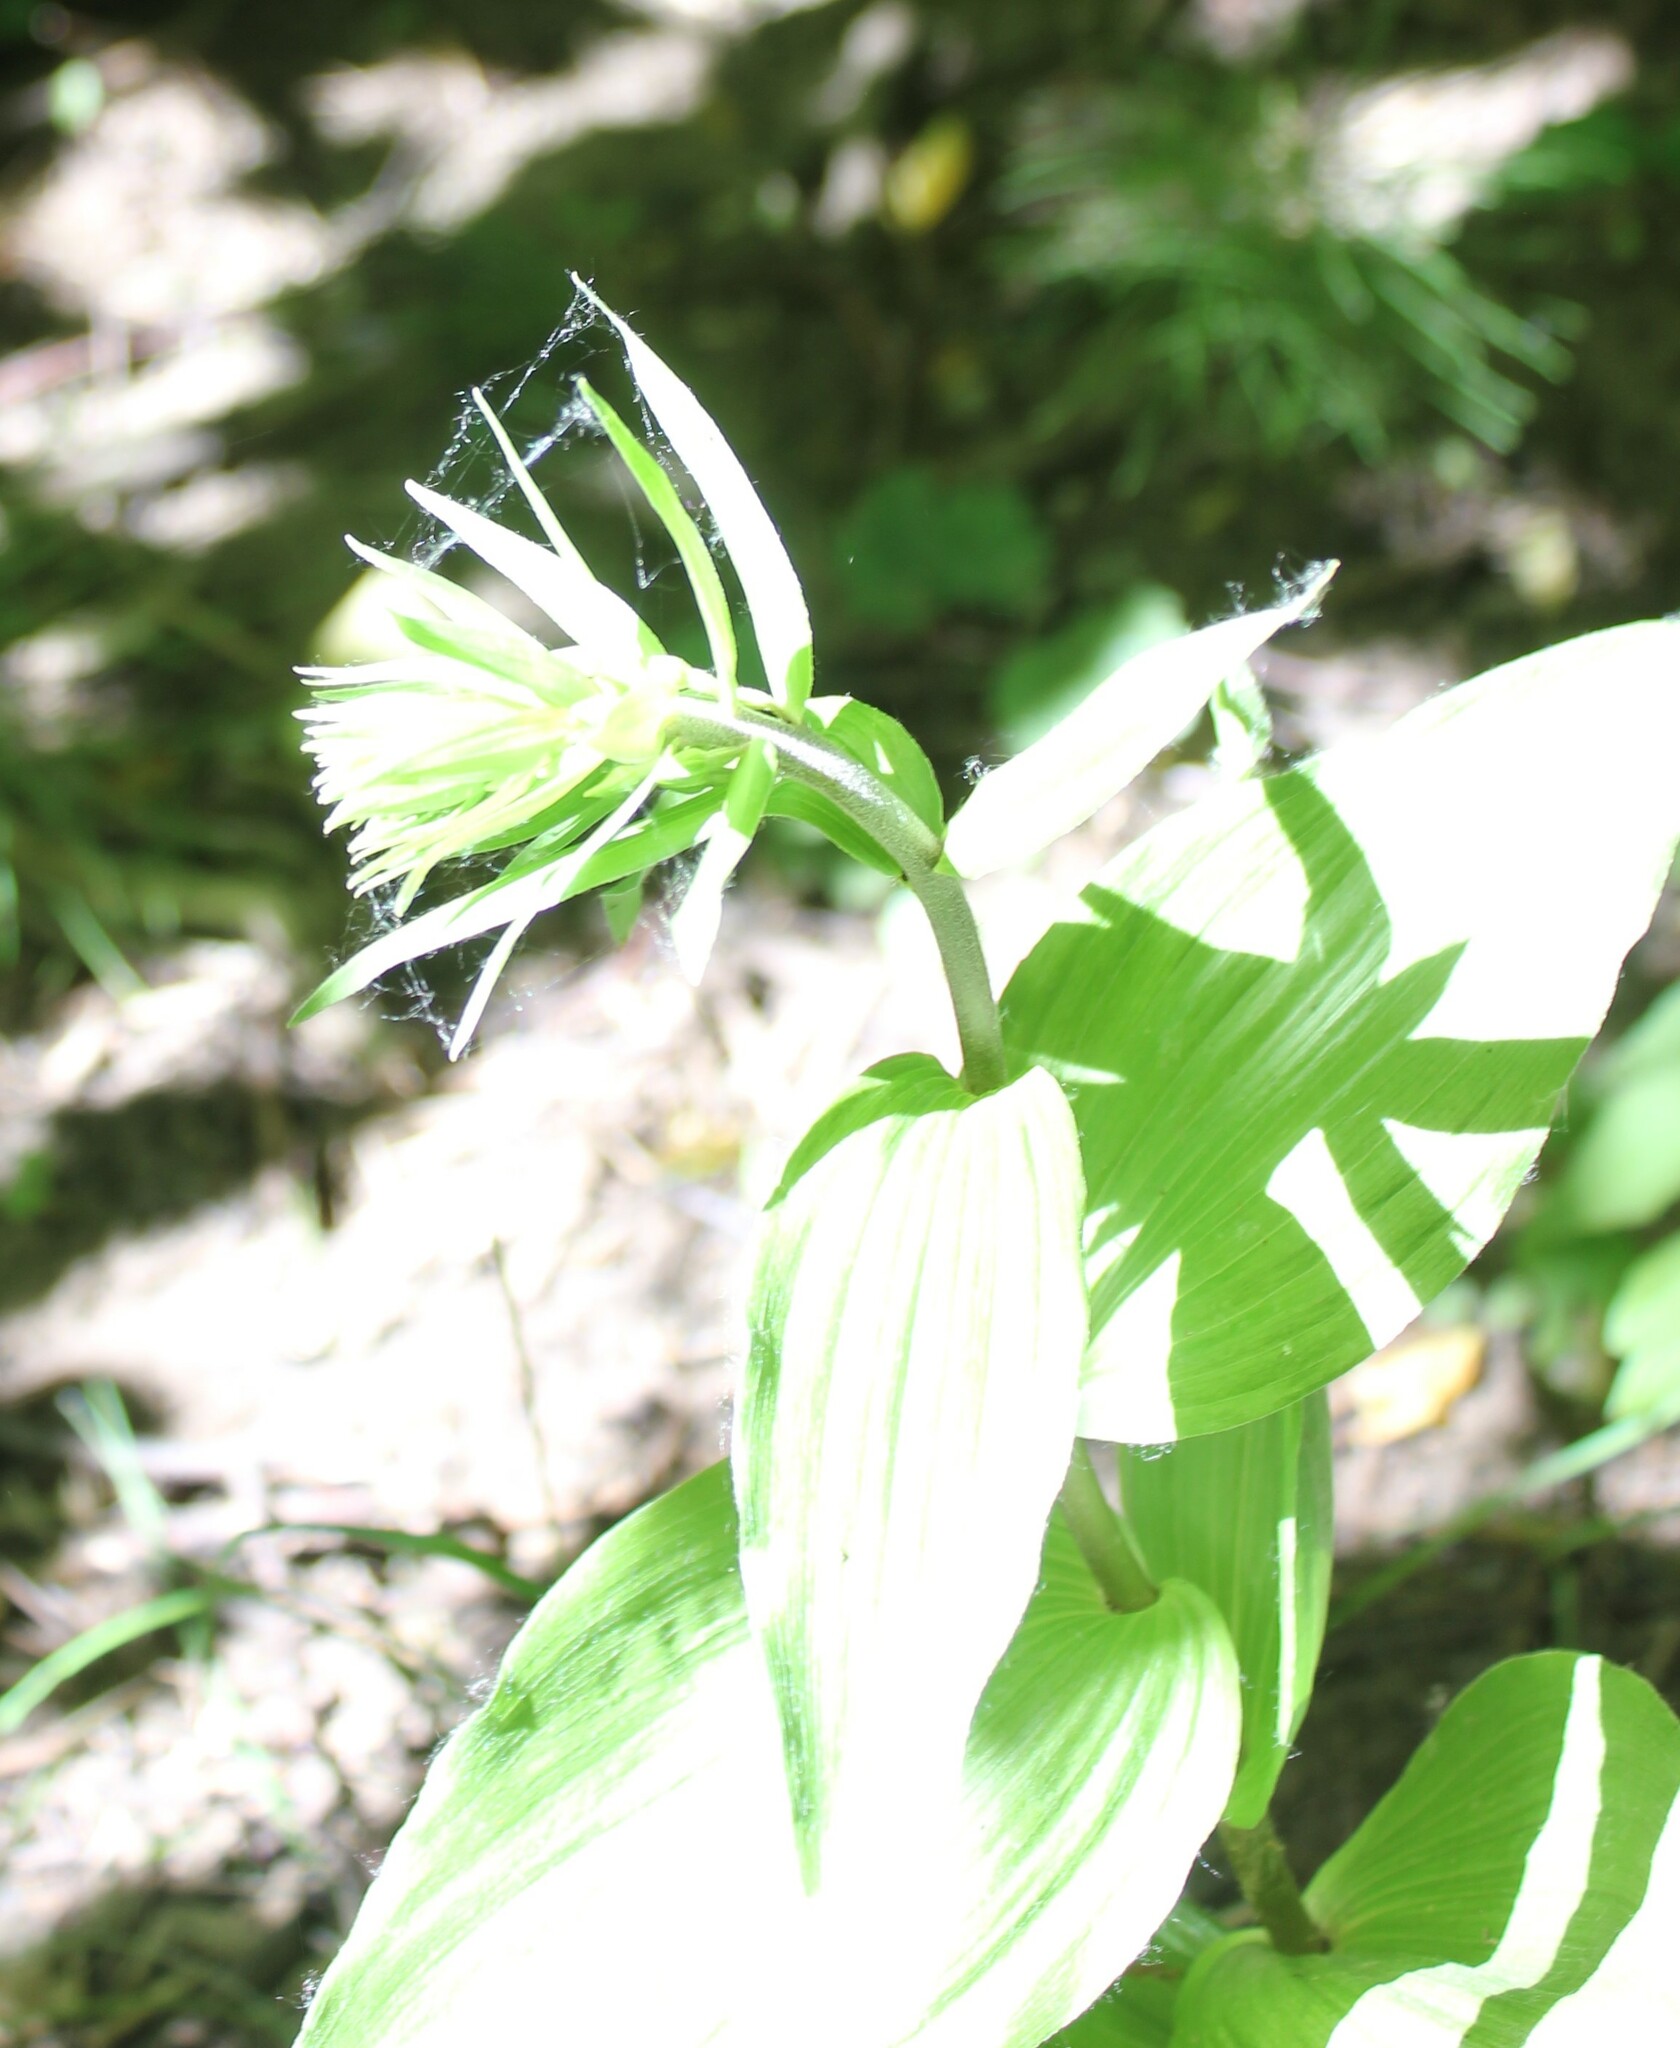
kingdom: Plantae
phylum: Tracheophyta
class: Liliopsida
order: Asparagales
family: Orchidaceae
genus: Epipactis
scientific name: Epipactis helleborine
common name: Broad-leaved helleborine
